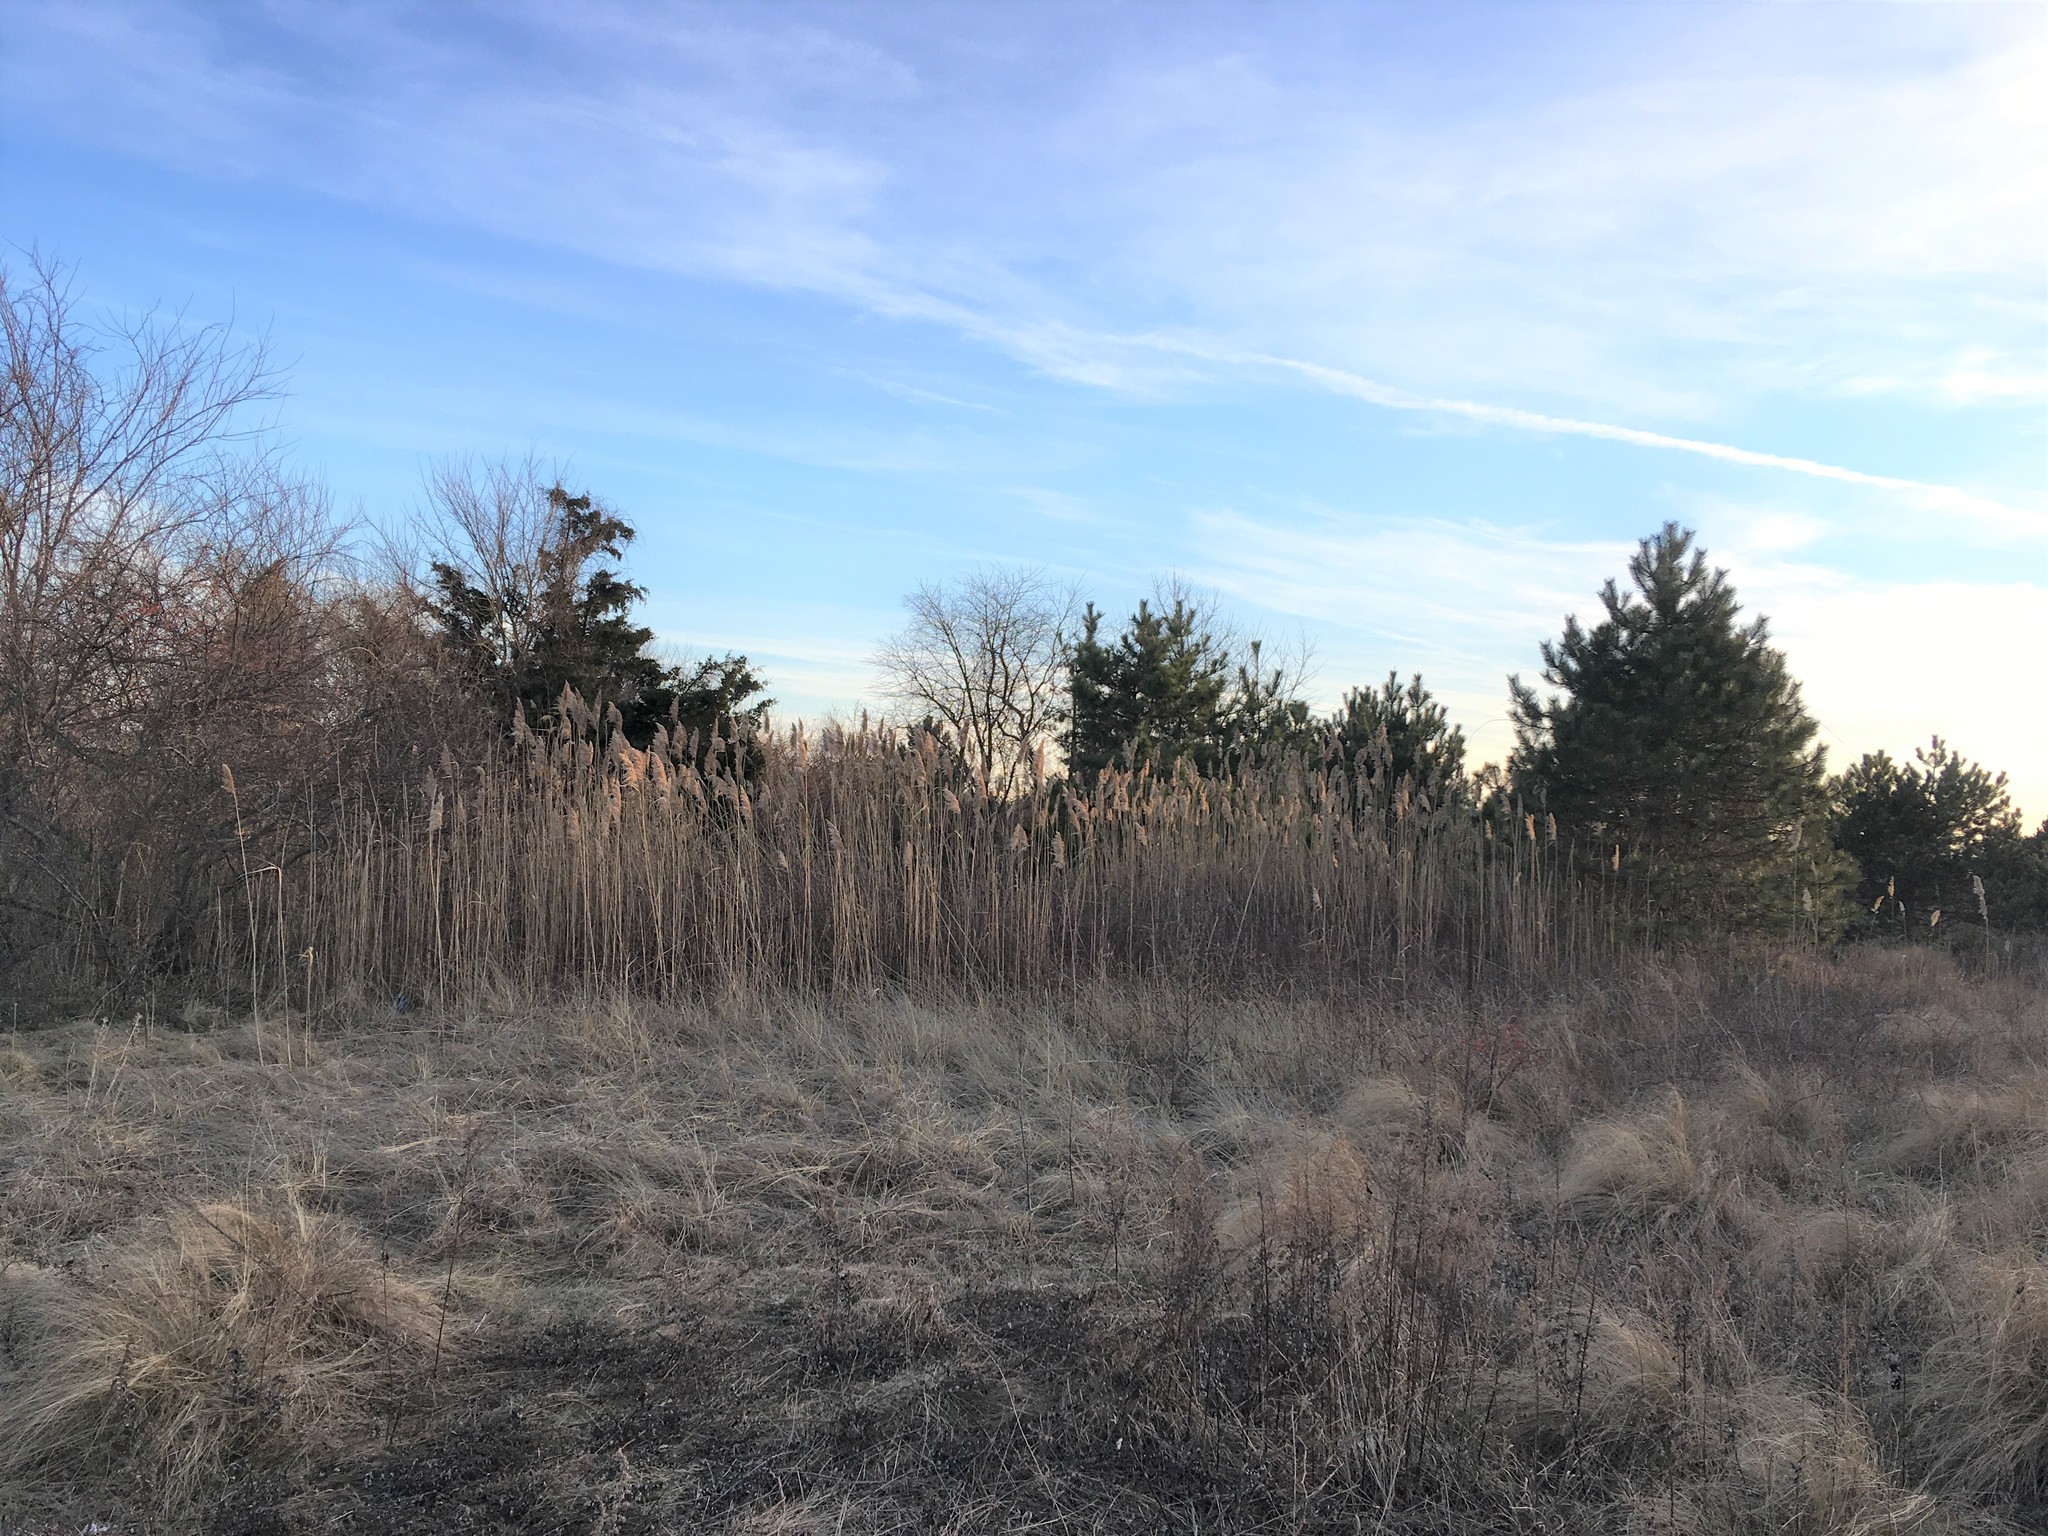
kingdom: Plantae
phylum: Tracheophyta
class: Liliopsida
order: Poales
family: Poaceae
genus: Phragmites
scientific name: Phragmites australis
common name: Common reed
